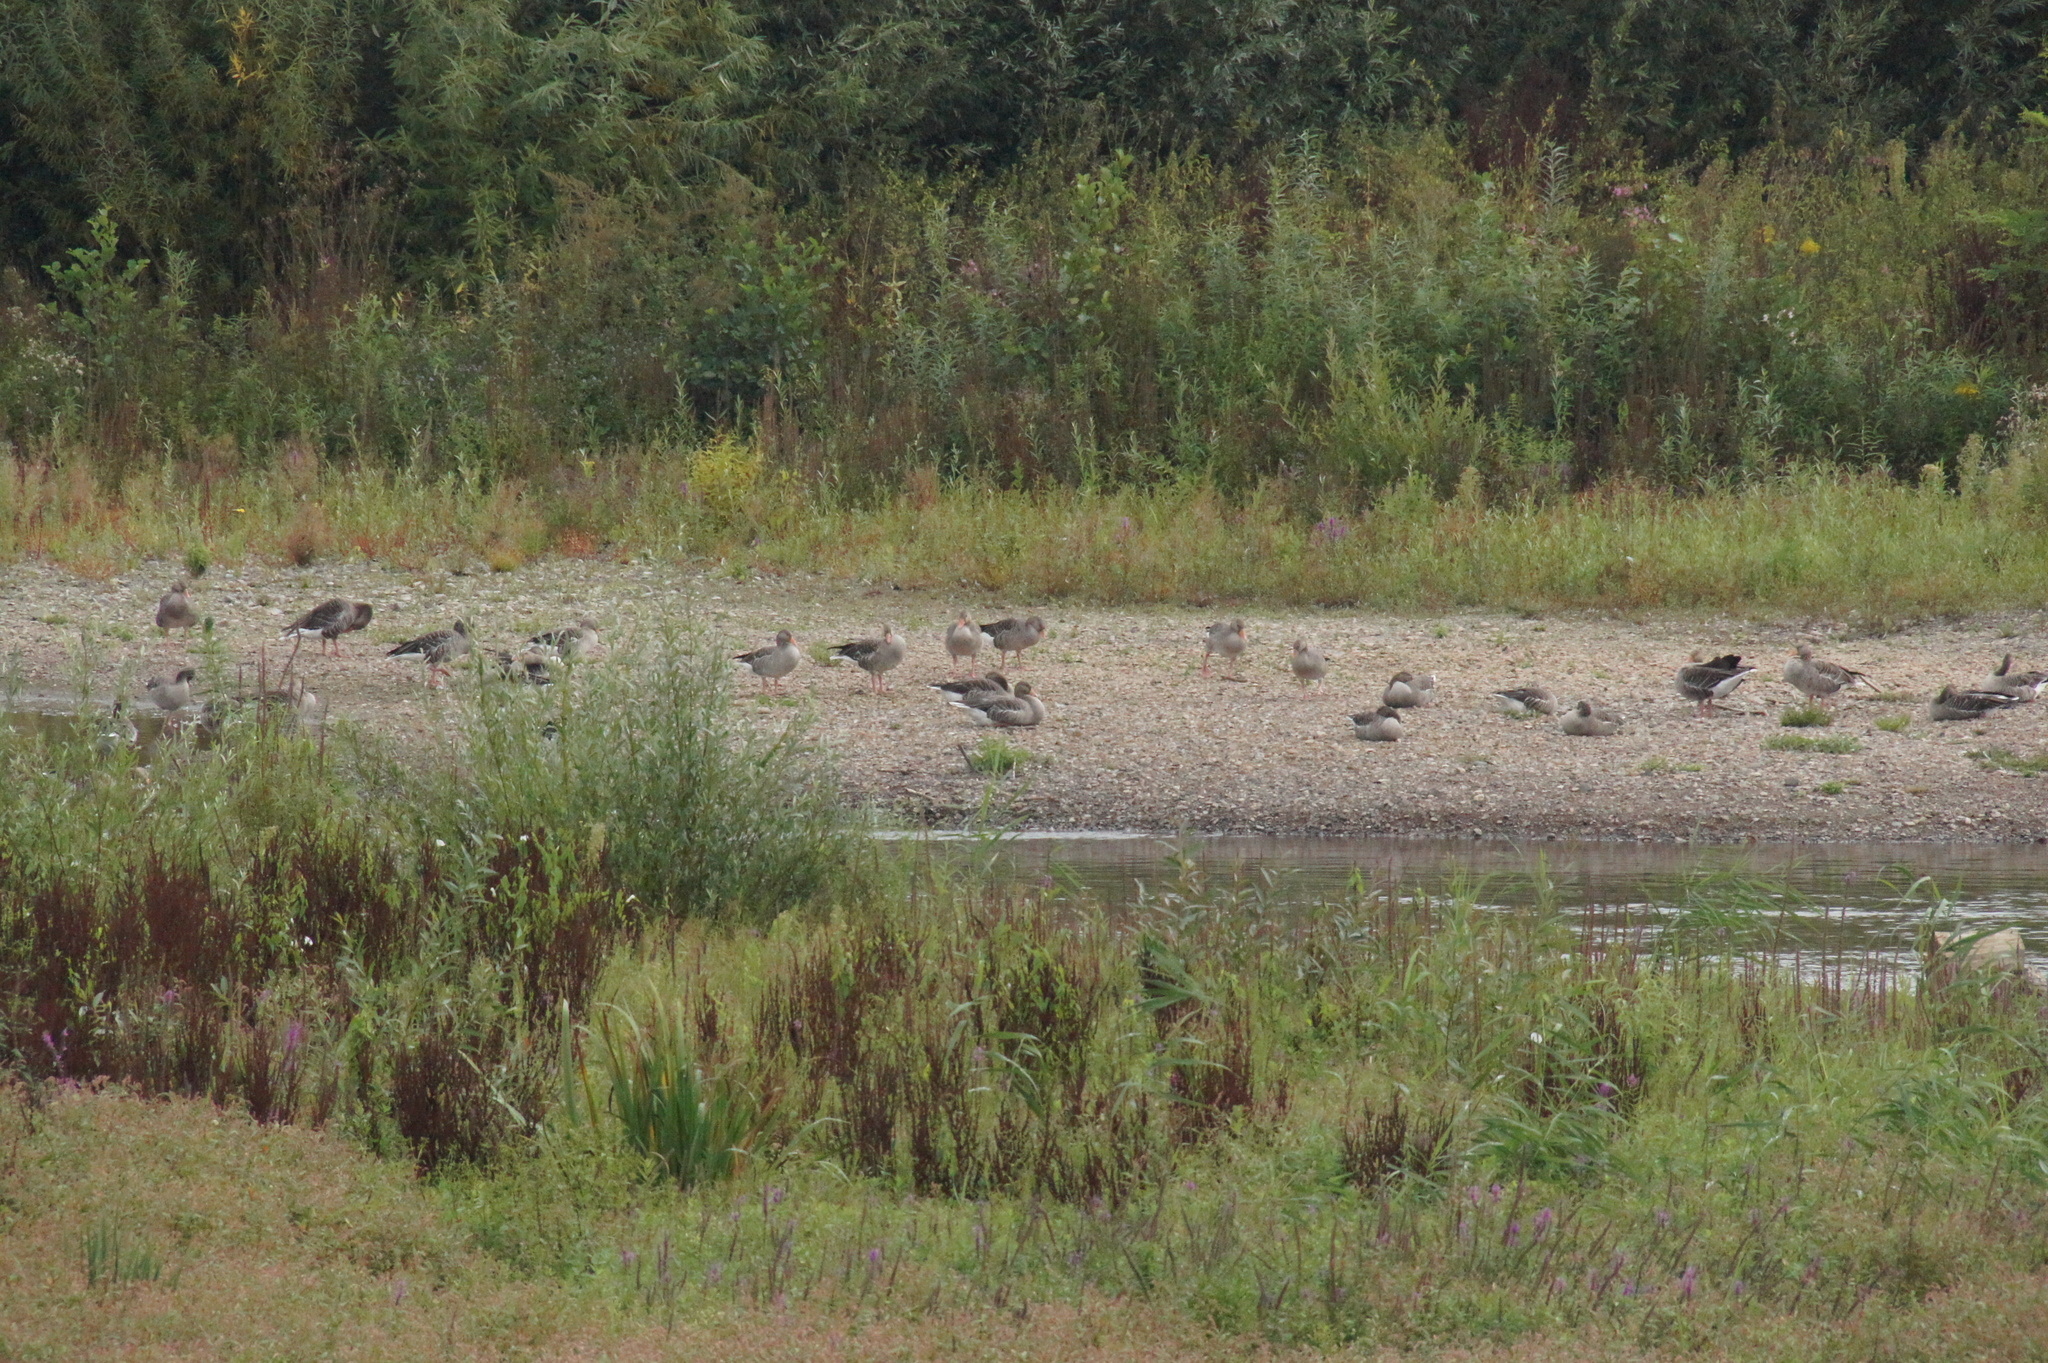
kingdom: Animalia
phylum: Chordata
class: Aves
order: Anseriformes
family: Anatidae
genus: Anser
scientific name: Anser anser
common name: Greylag goose
